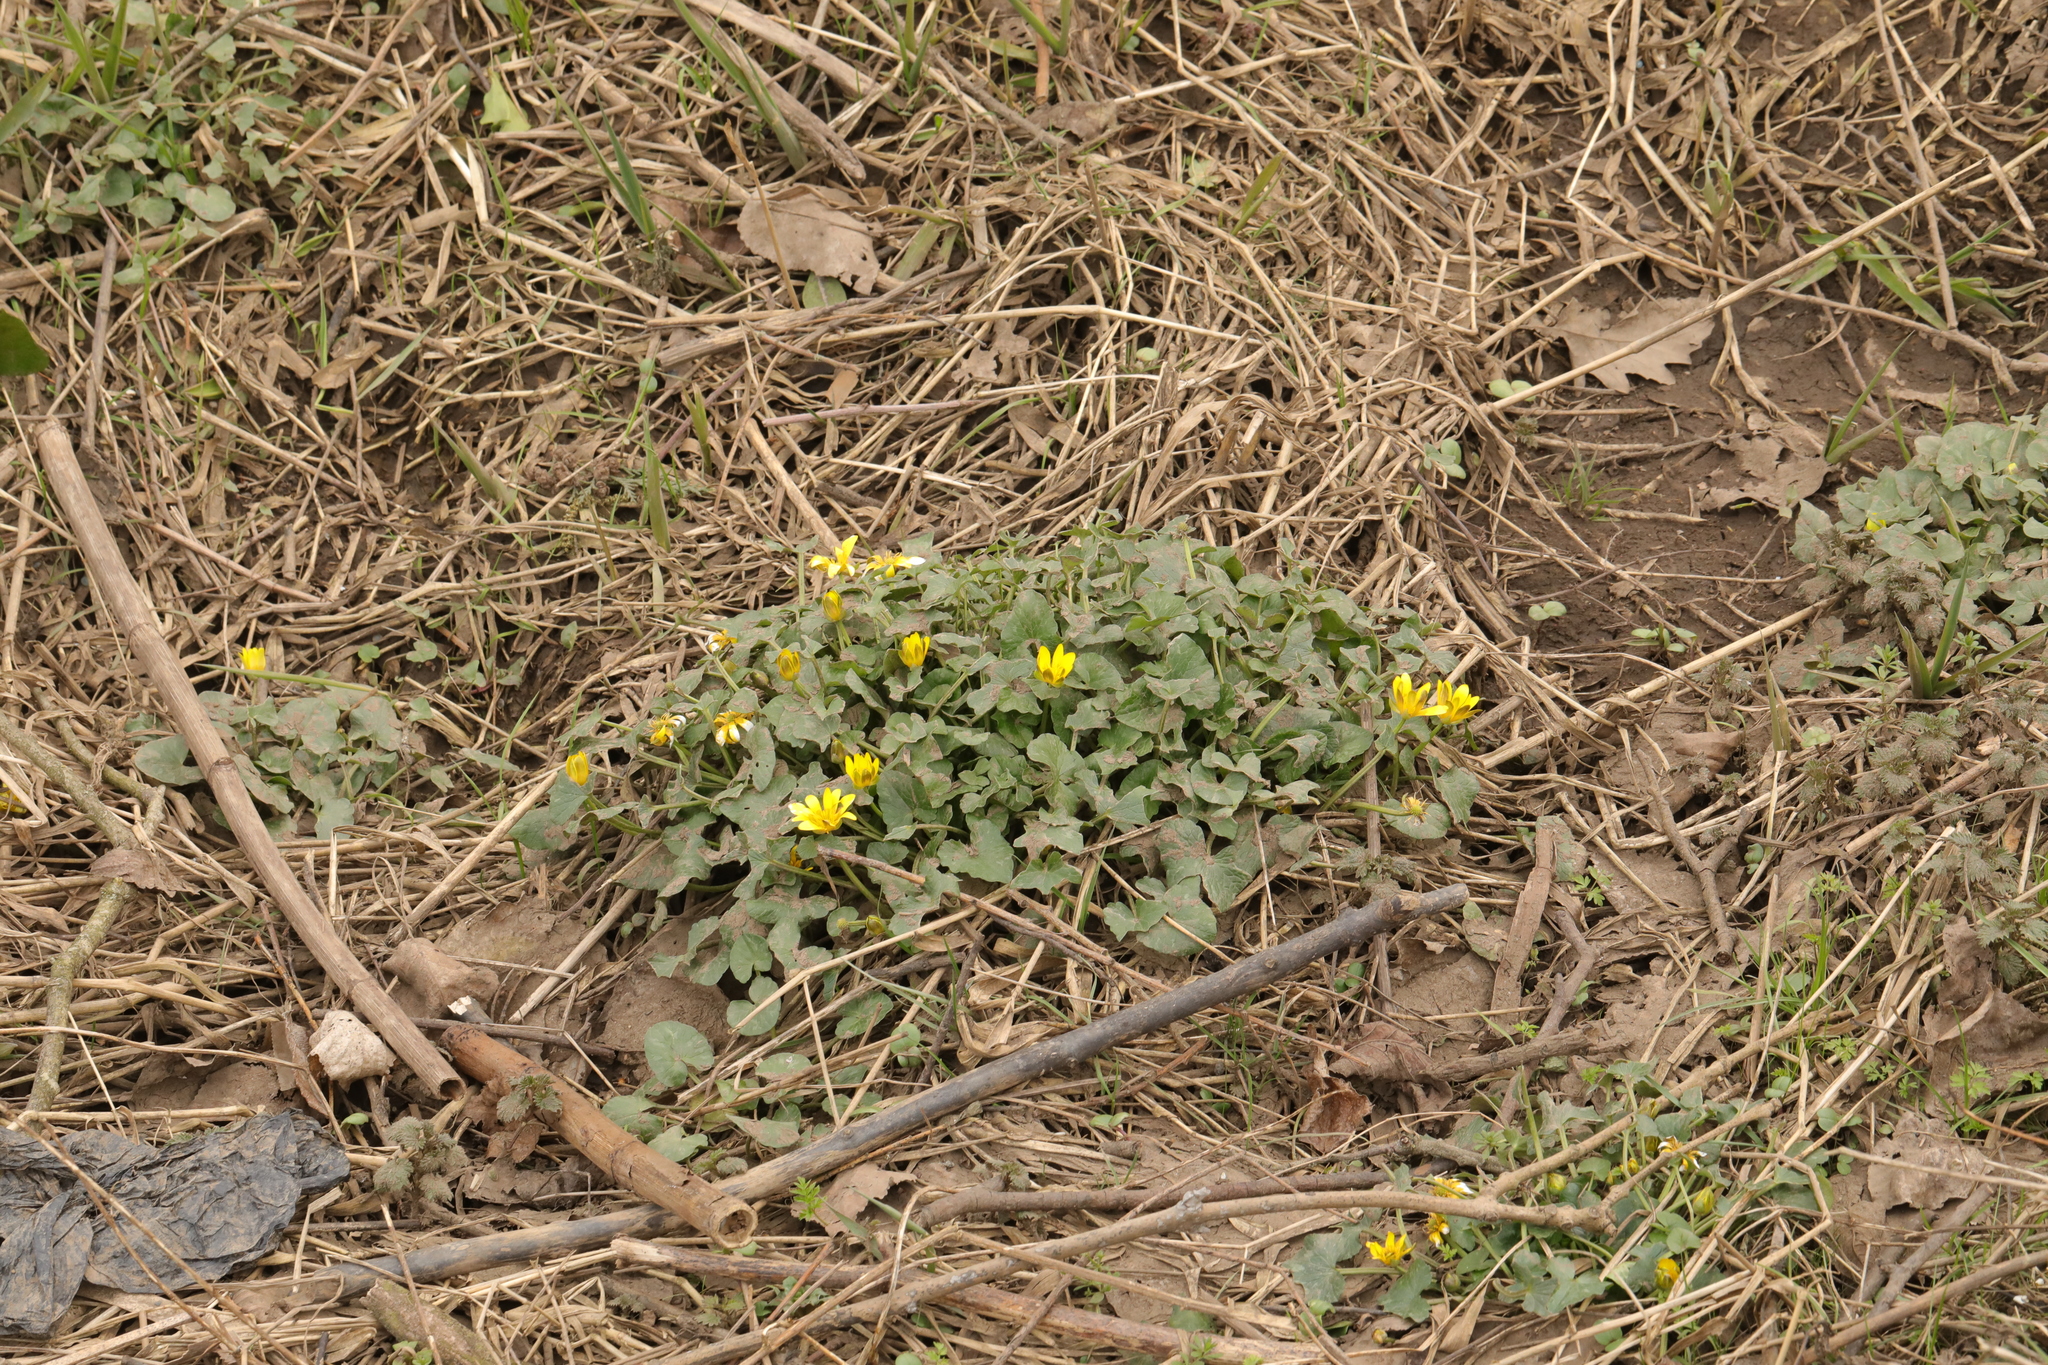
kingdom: Plantae
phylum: Tracheophyta
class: Magnoliopsida
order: Ranunculales
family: Ranunculaceae
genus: Ficaria
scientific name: Ficaria verna
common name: Lesser celandine
